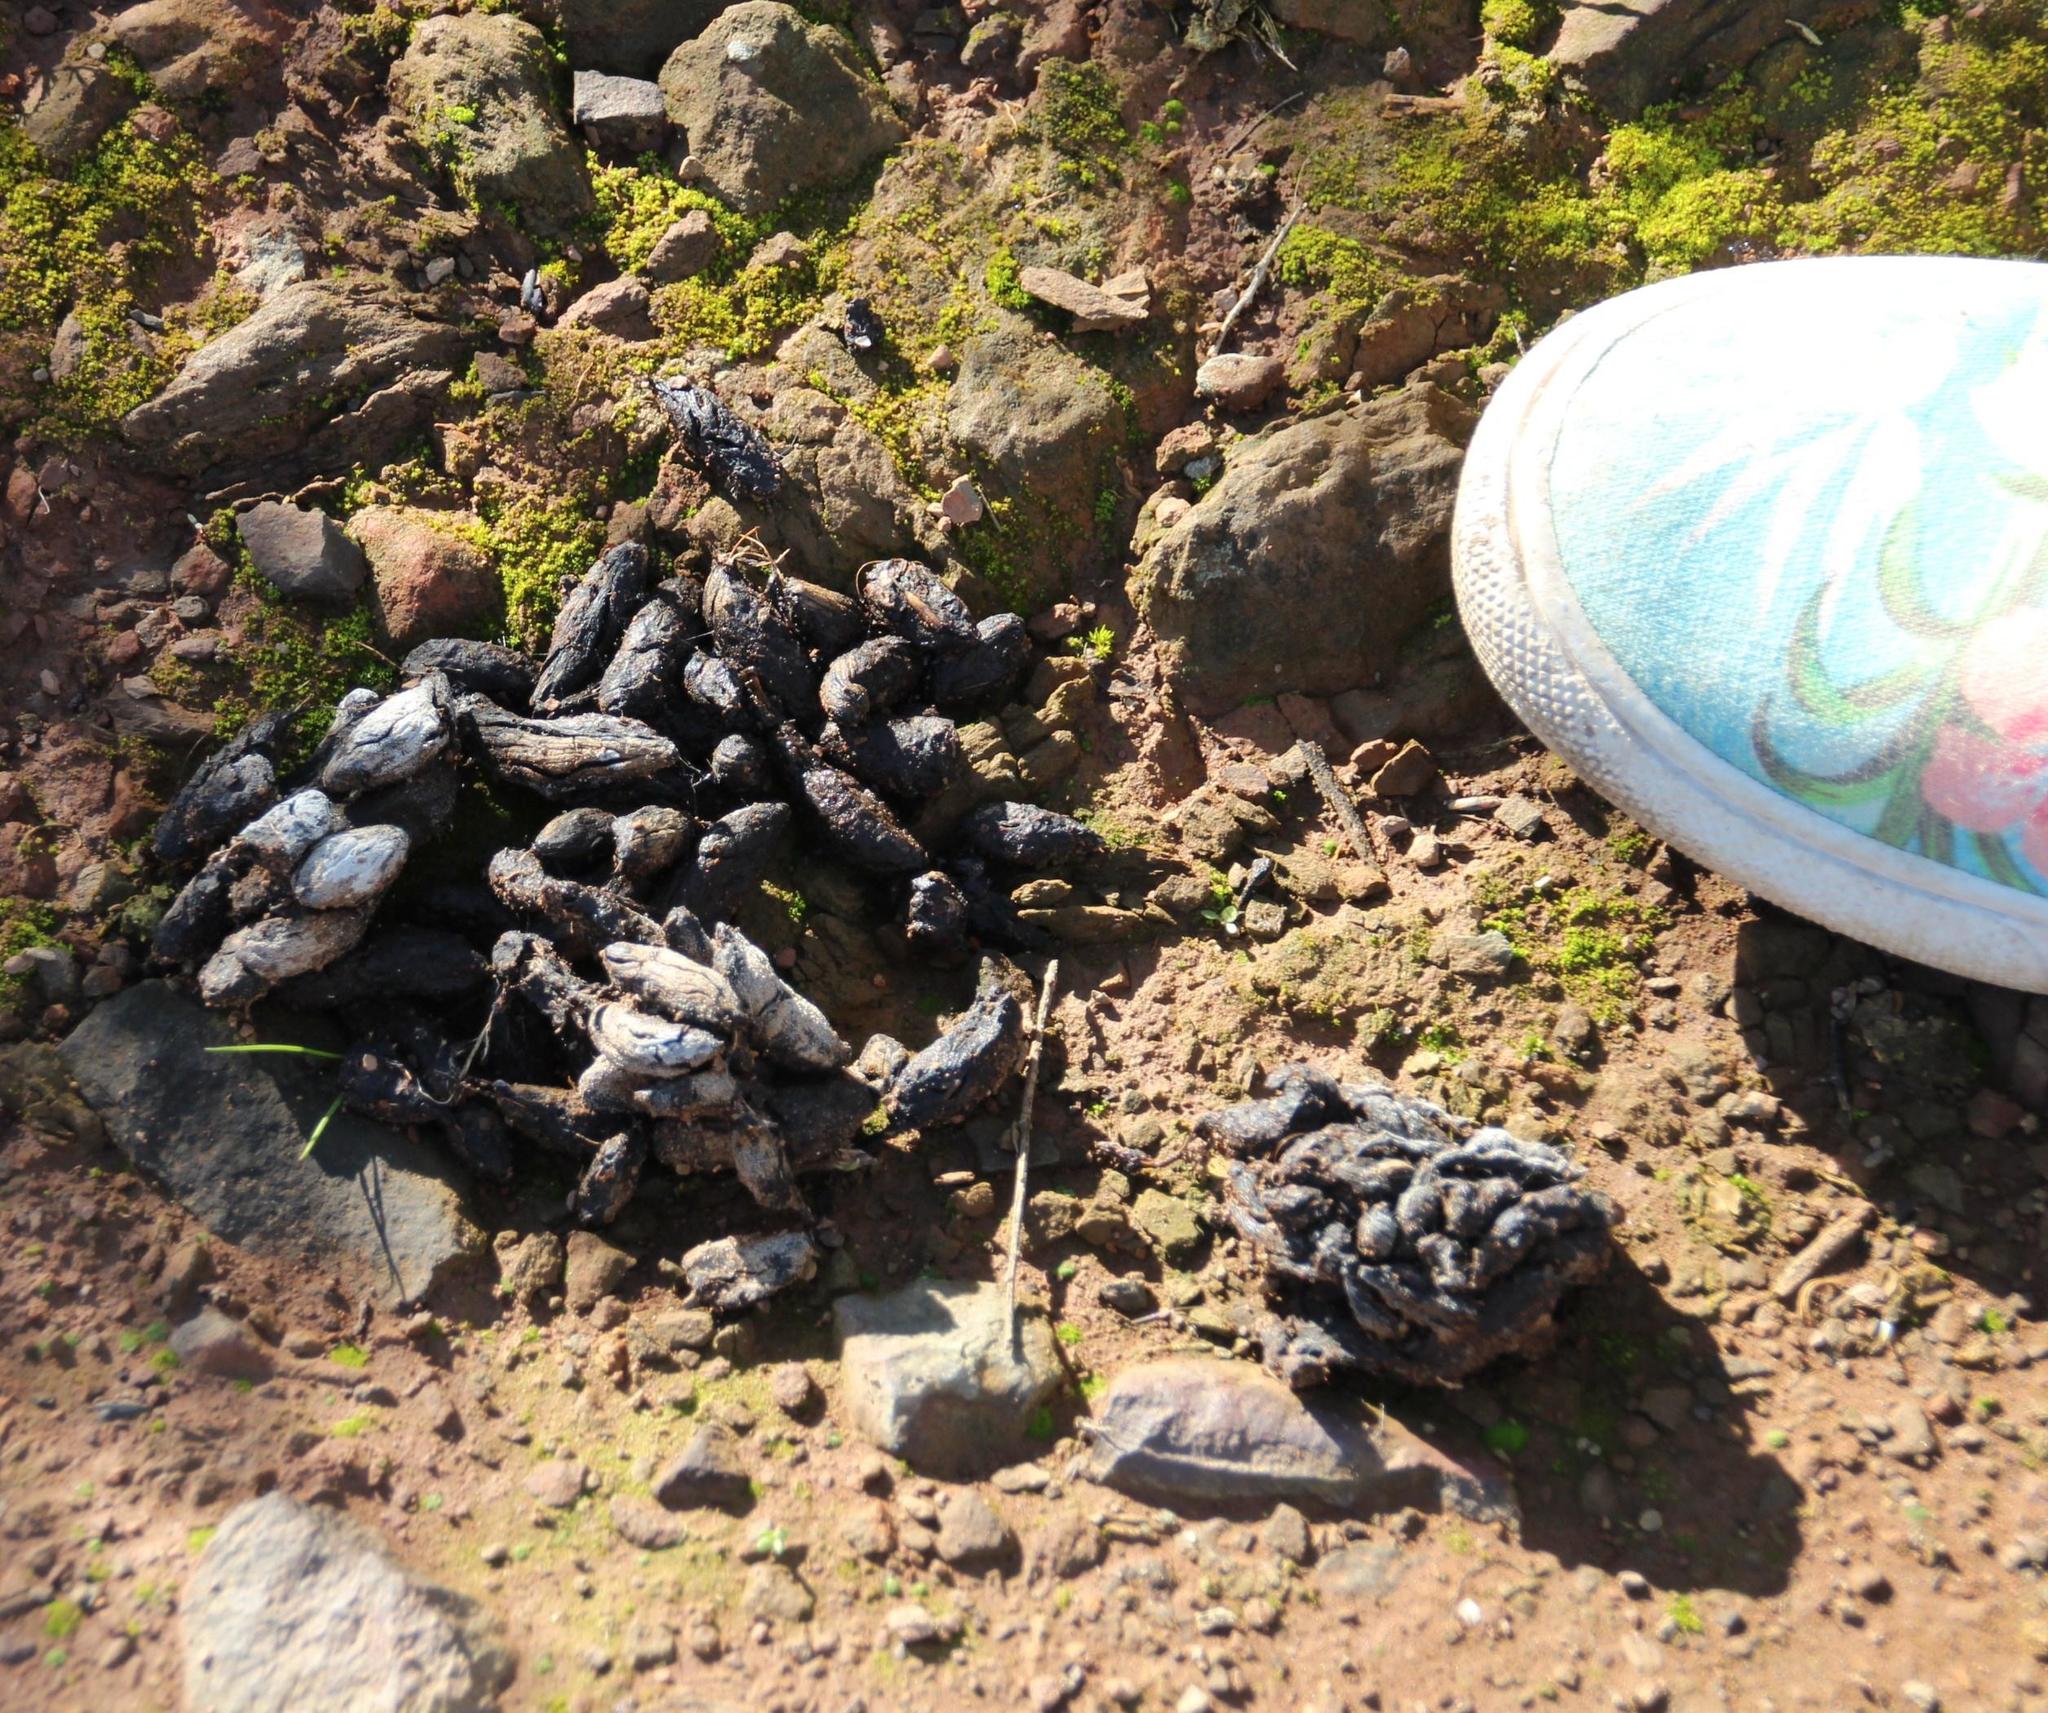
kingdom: Animalia
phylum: Chordata
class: Mammalia
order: Rodentia
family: Hystricidae
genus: Hystrix
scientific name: Hystrix africaeaustralis
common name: Cape porcupine
